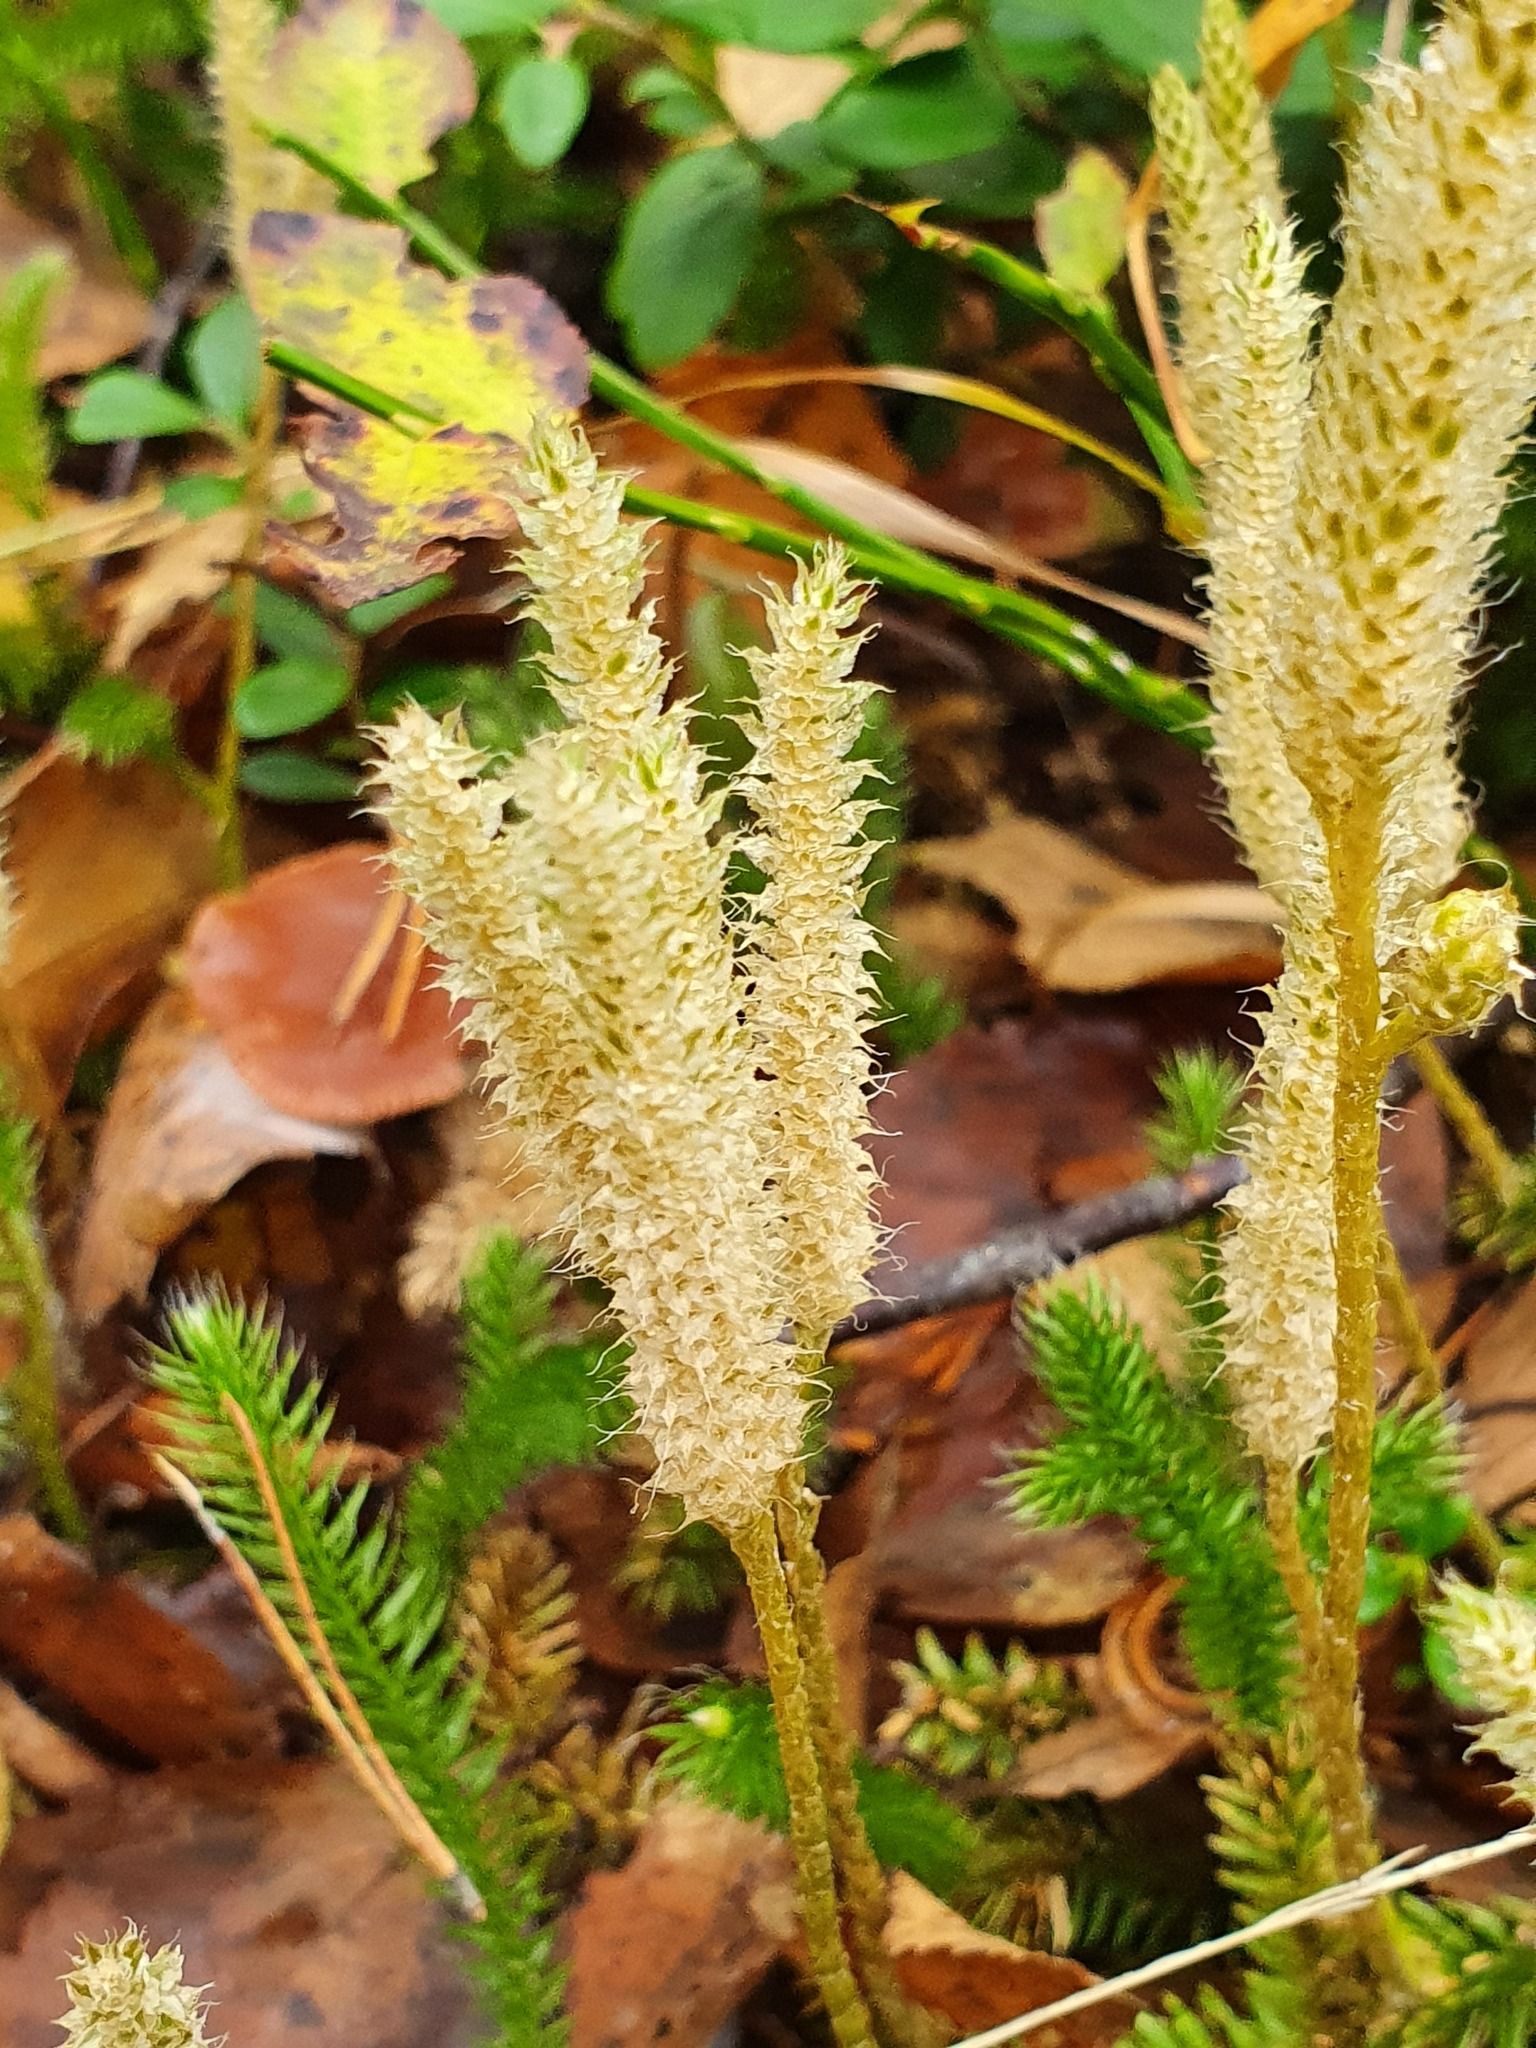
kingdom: Plantae
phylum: Tracheophyta
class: Lycopodiopsida
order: Lycopodiales
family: Lycopodiaceae
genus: Lycopodium
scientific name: Lycopodium clavatum
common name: Stag's-horn clubmoss
